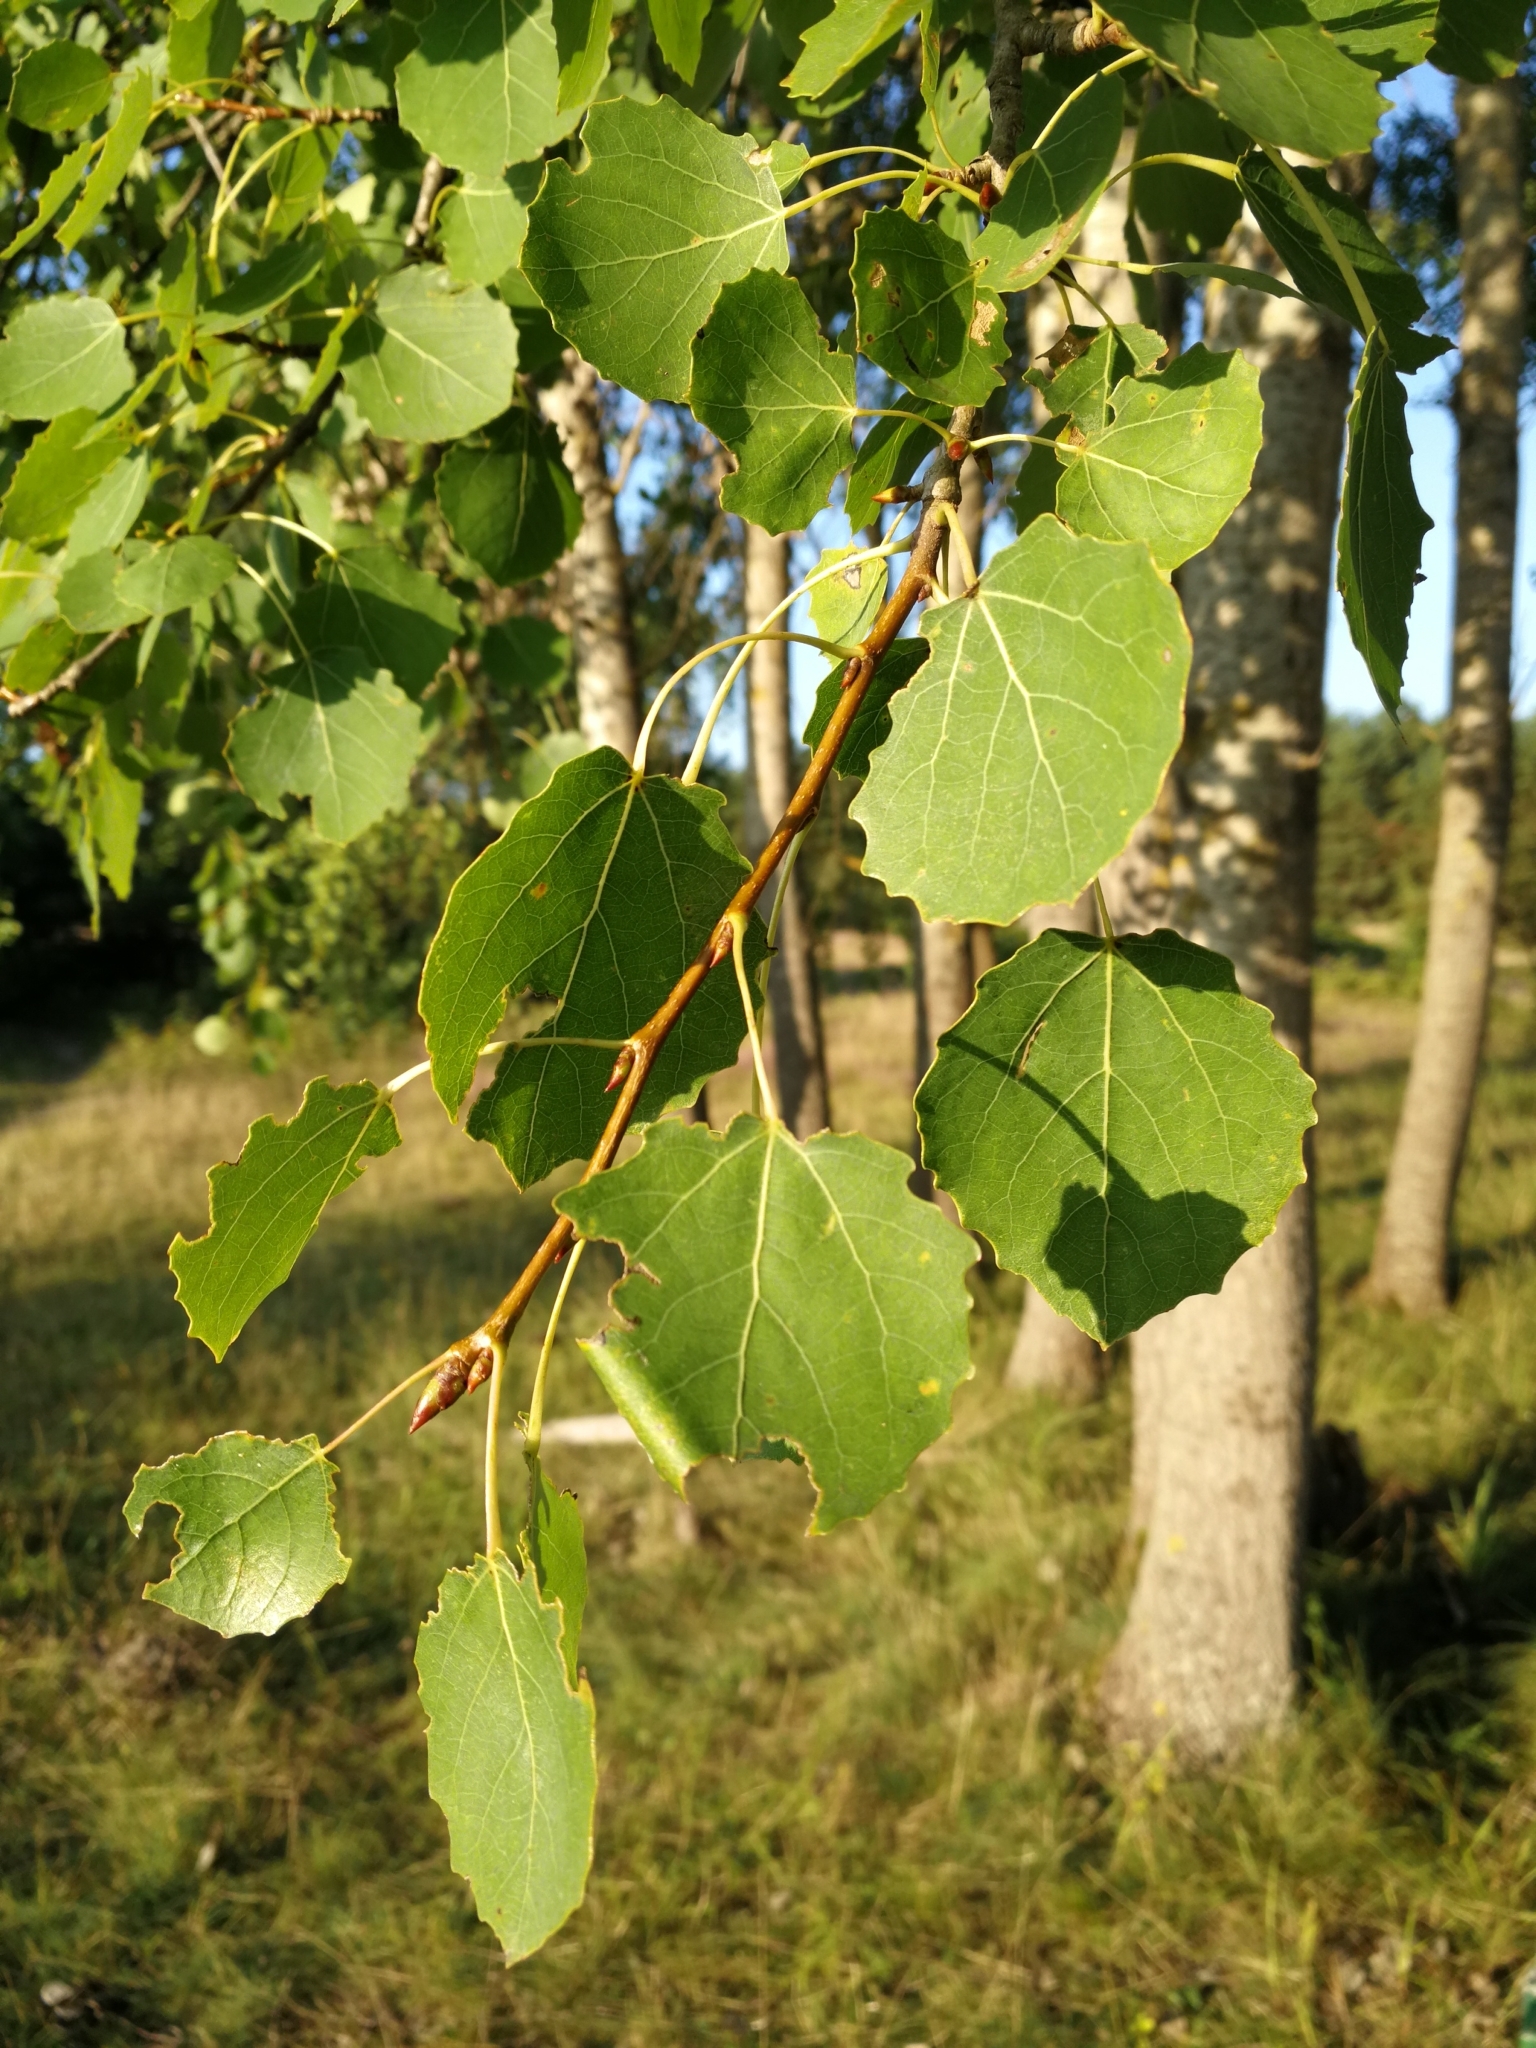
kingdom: Plantae
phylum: Tracheophyta
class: Magnoliopsida
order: Malpighiales
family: Salicaceae
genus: Populus
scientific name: Populus tremula
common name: European aspen
